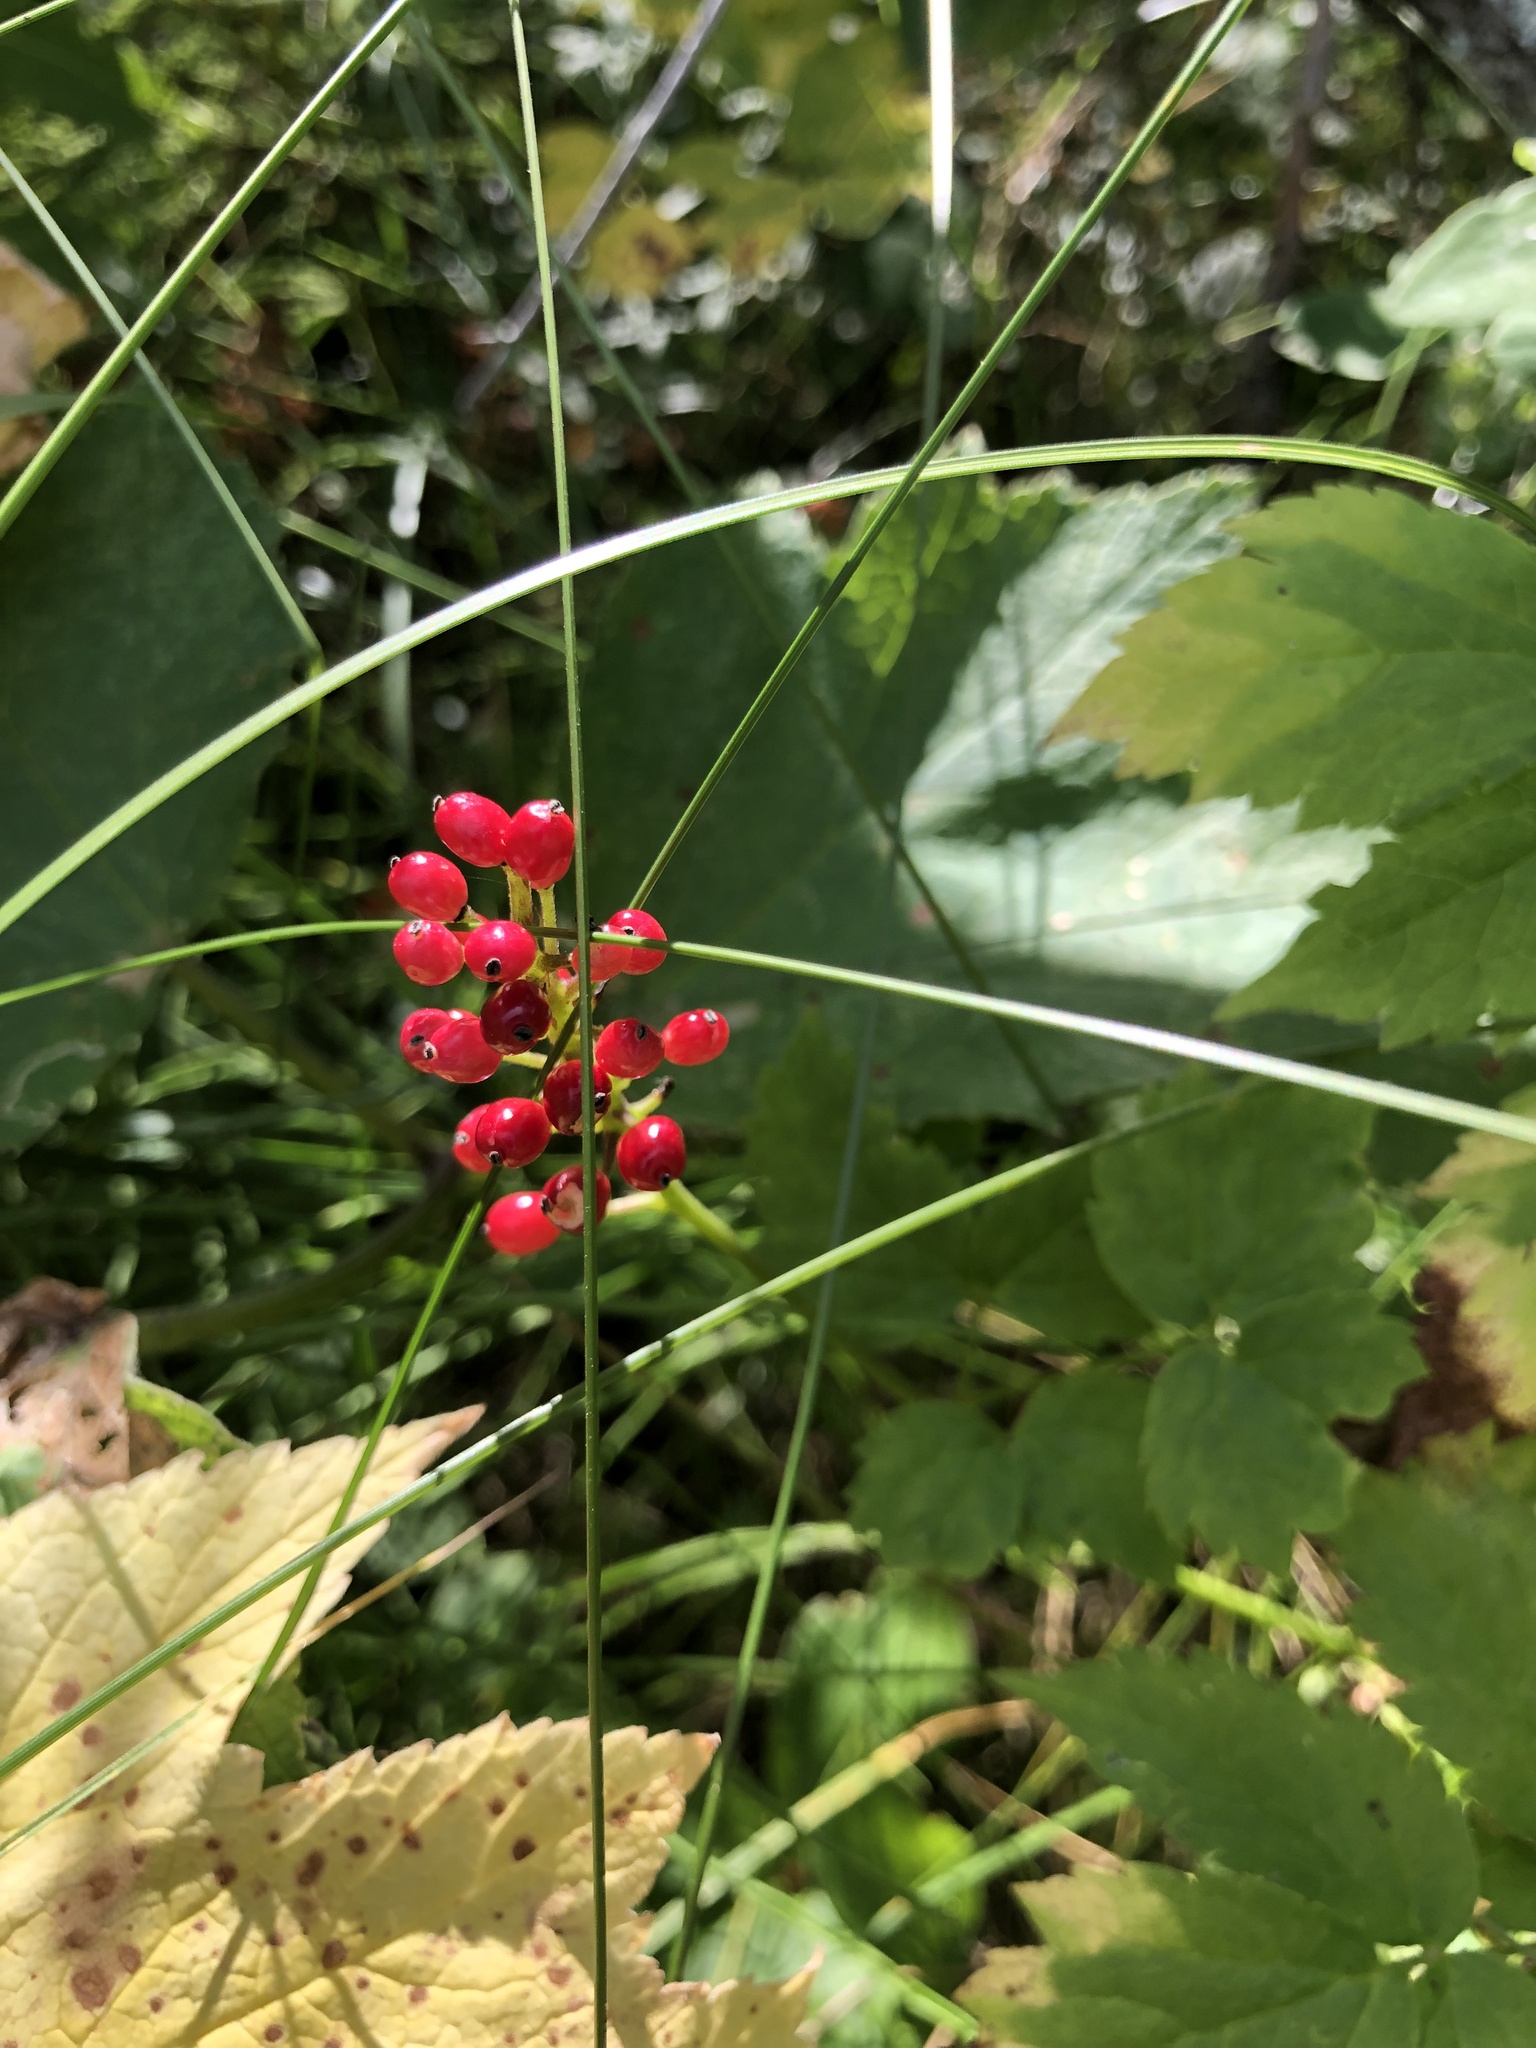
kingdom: Plantae
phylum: Tracheophyta
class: Magnoliopsida
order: Ranunculales
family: Ranunculaceae
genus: Actaea
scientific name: Actaea rubra
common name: Red baneberry
